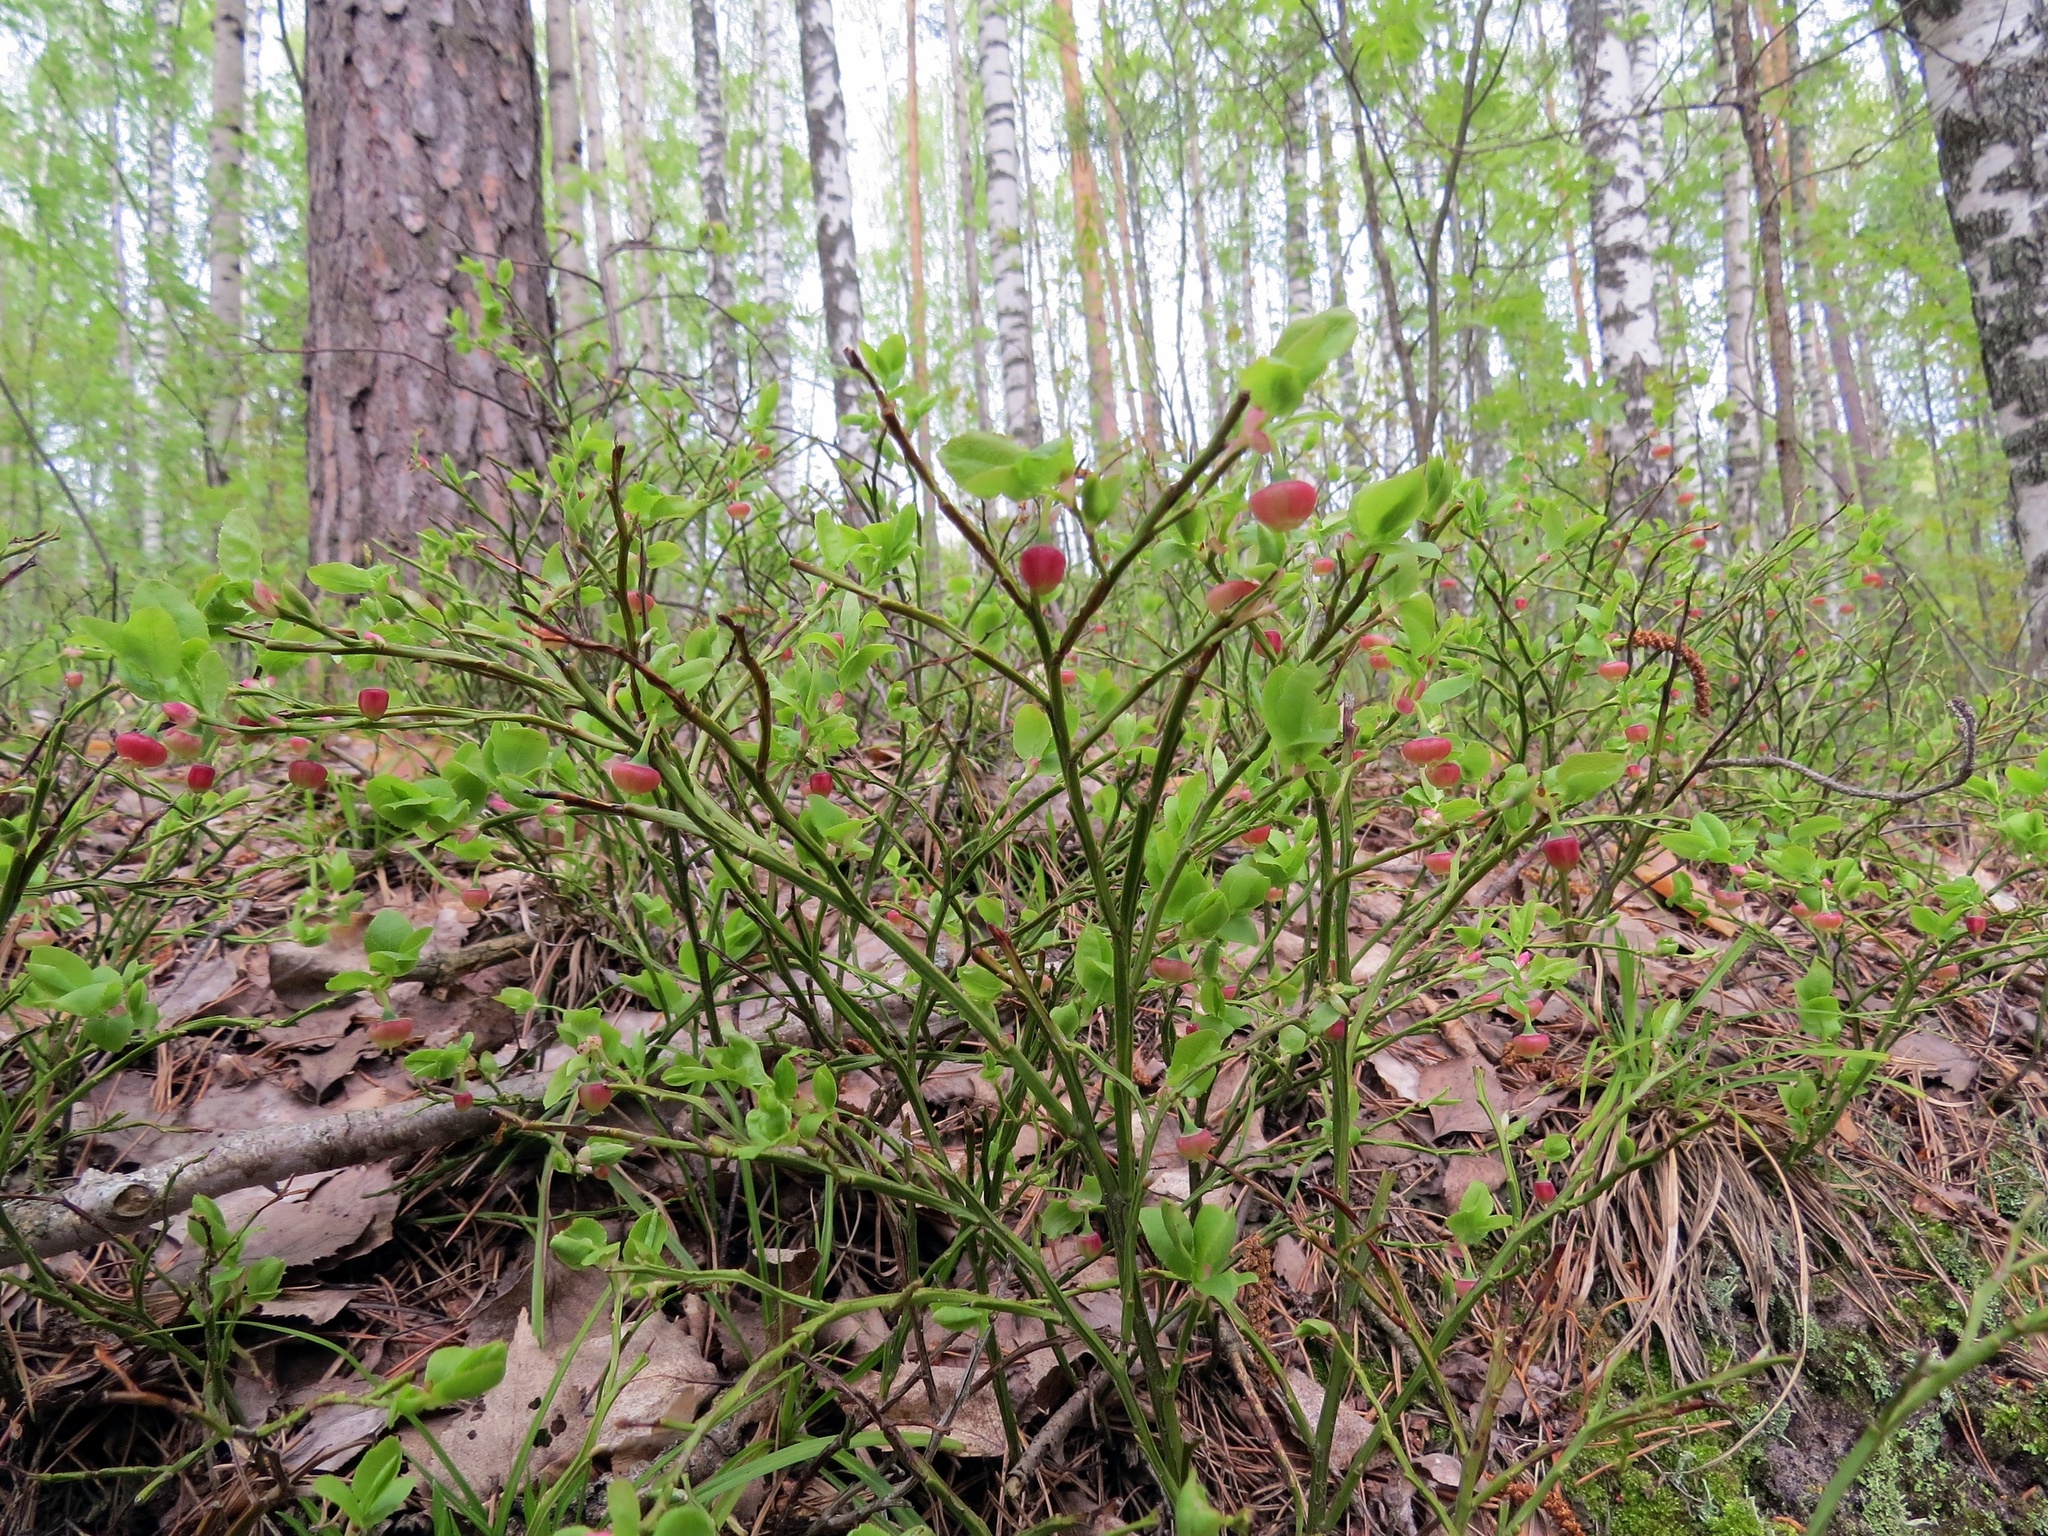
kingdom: Plantae
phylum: Tracheophyta
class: Magnoliopsida
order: Ericales
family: Ericaceae
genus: Vaccinium
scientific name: Vaccinium myrtillus
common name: Bilberry
